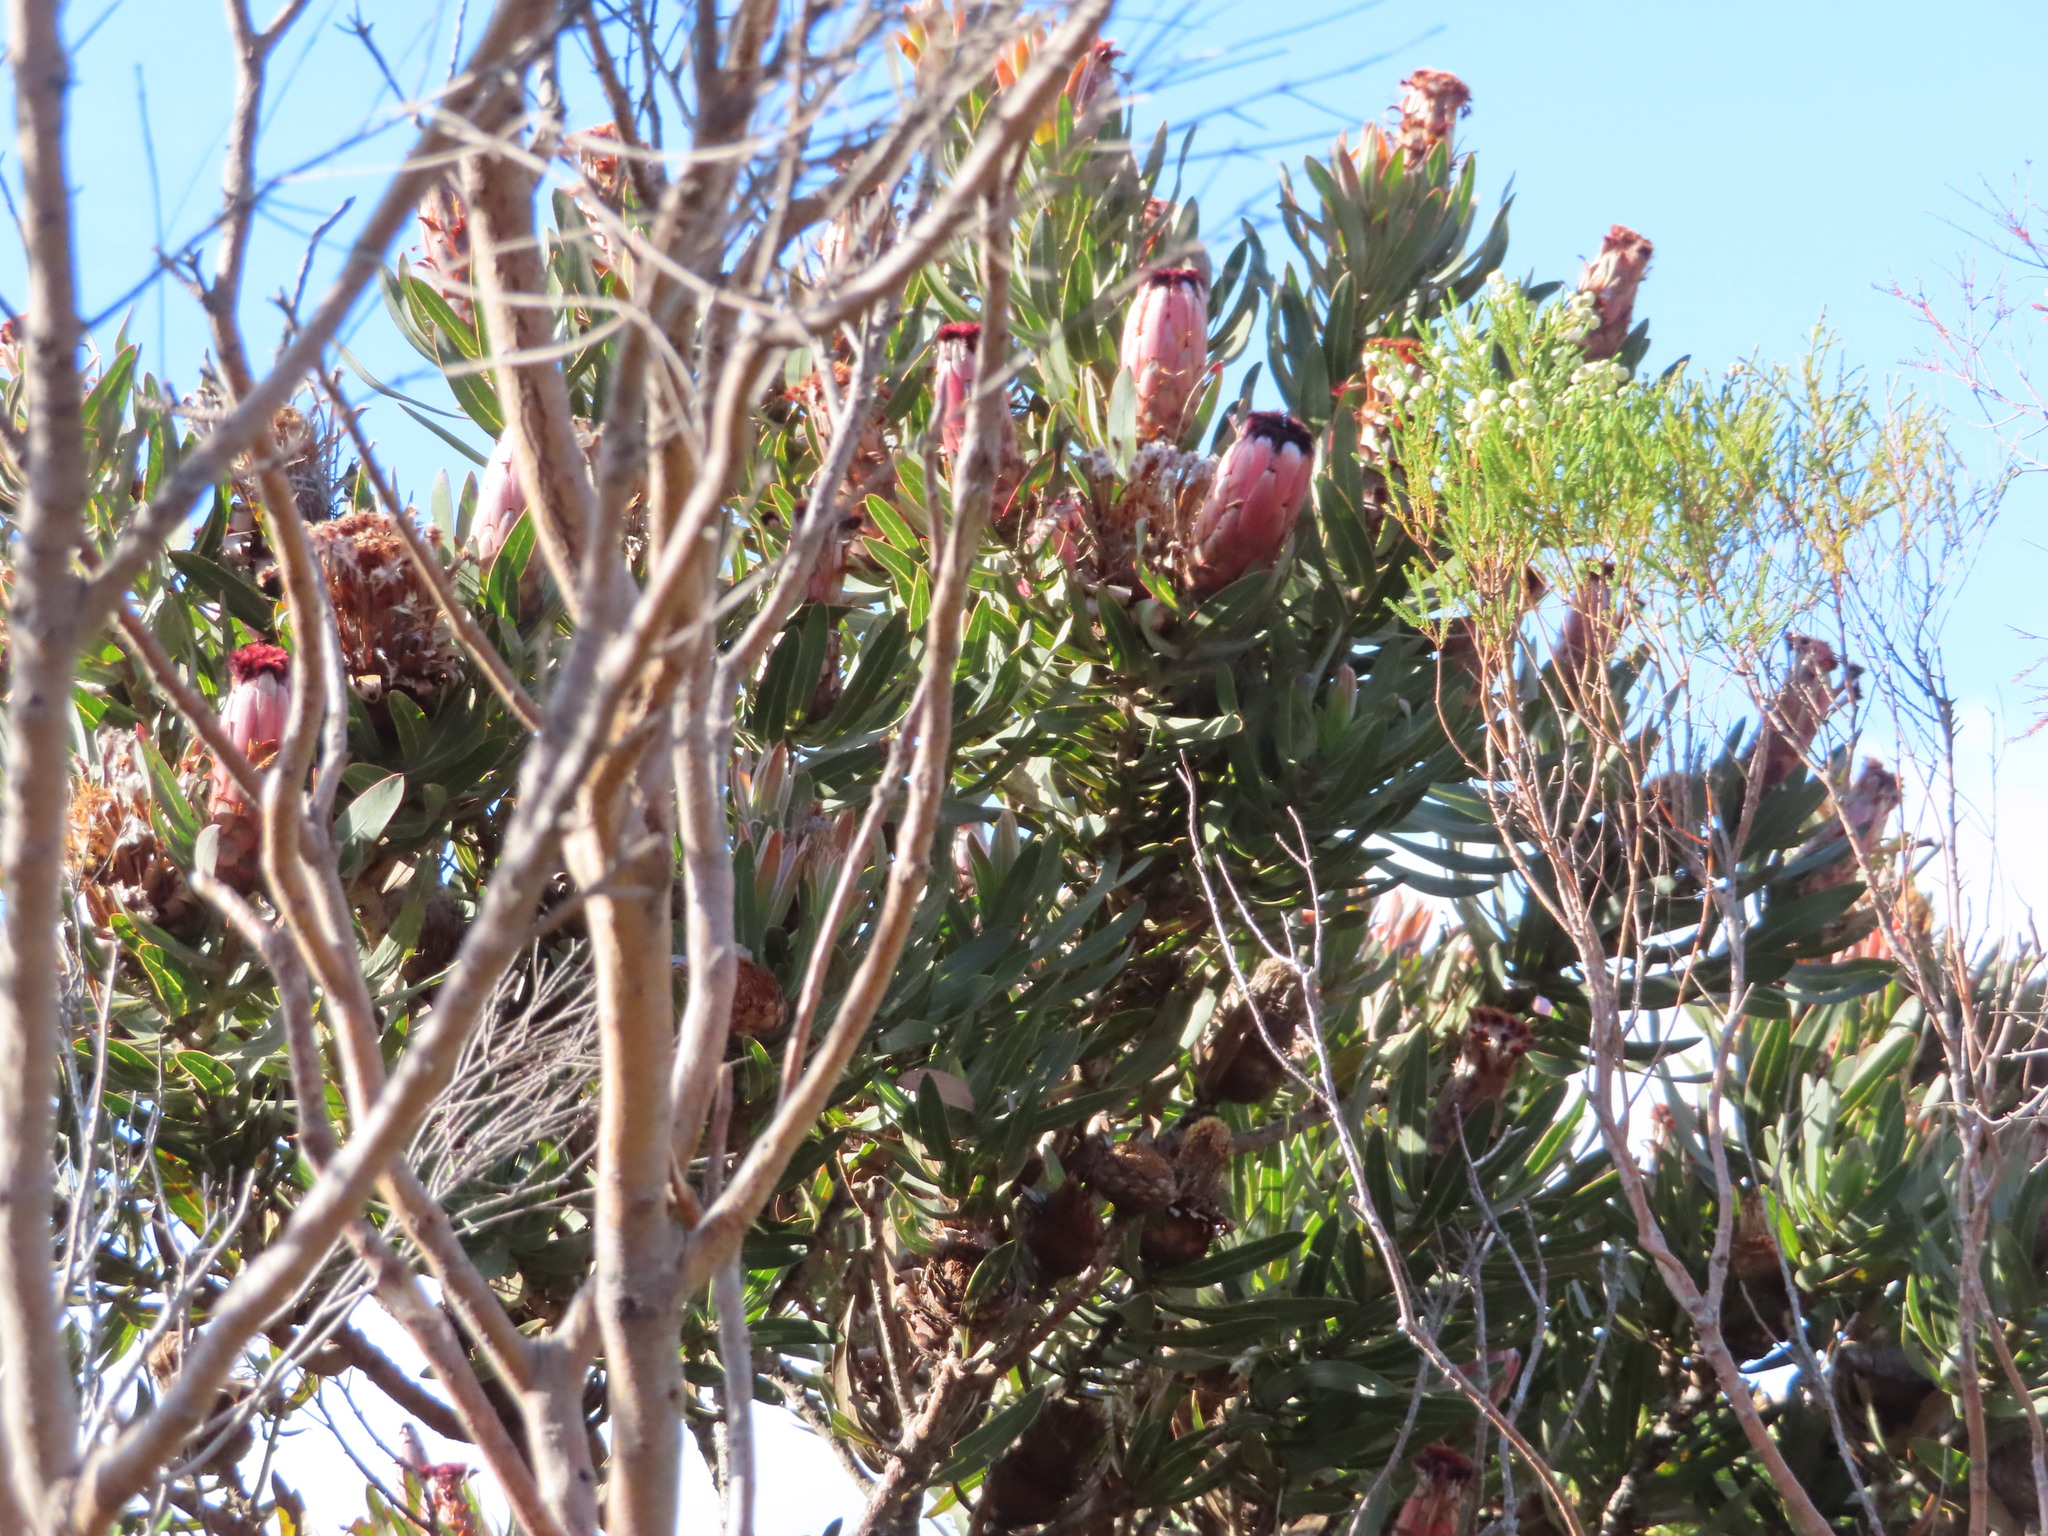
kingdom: Plantae
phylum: Tracheophyta
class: Magnoliopsida
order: Proteales
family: Proteaceae
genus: Protea
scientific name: Protea laurifolia
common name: Grey-leaf sugarbsh
